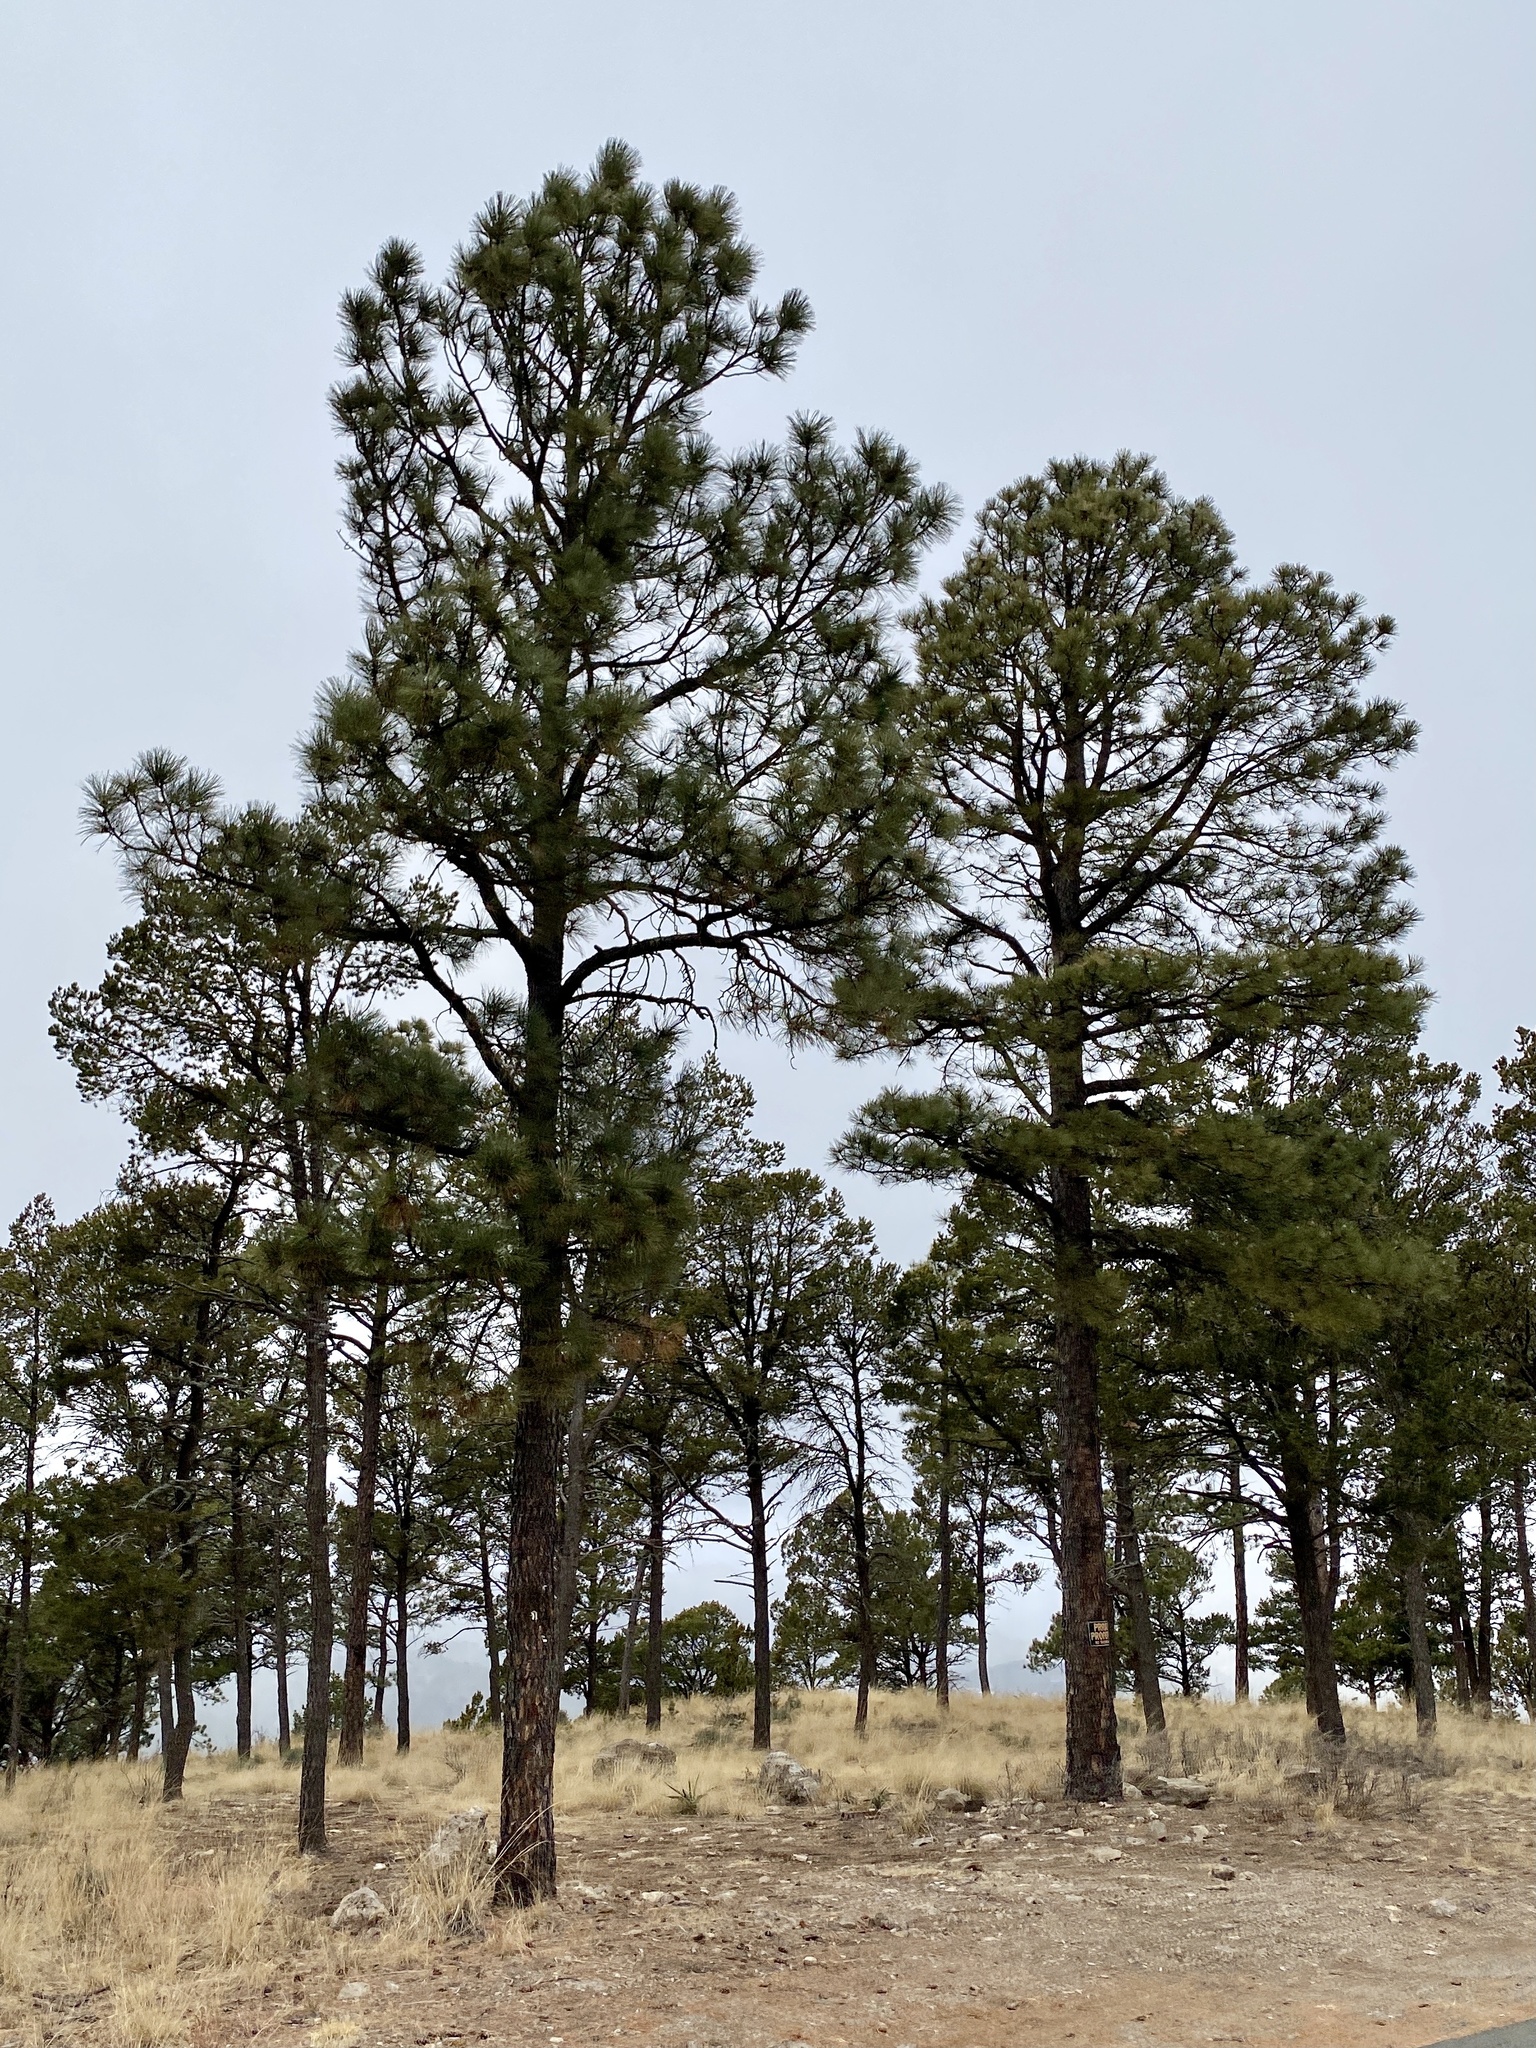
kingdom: Plantae
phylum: Tracheophyta
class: Pinopsida
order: Pinales
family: Pinaceae
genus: Pinus
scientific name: Pinus ponderosa
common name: Western yellow-pine
